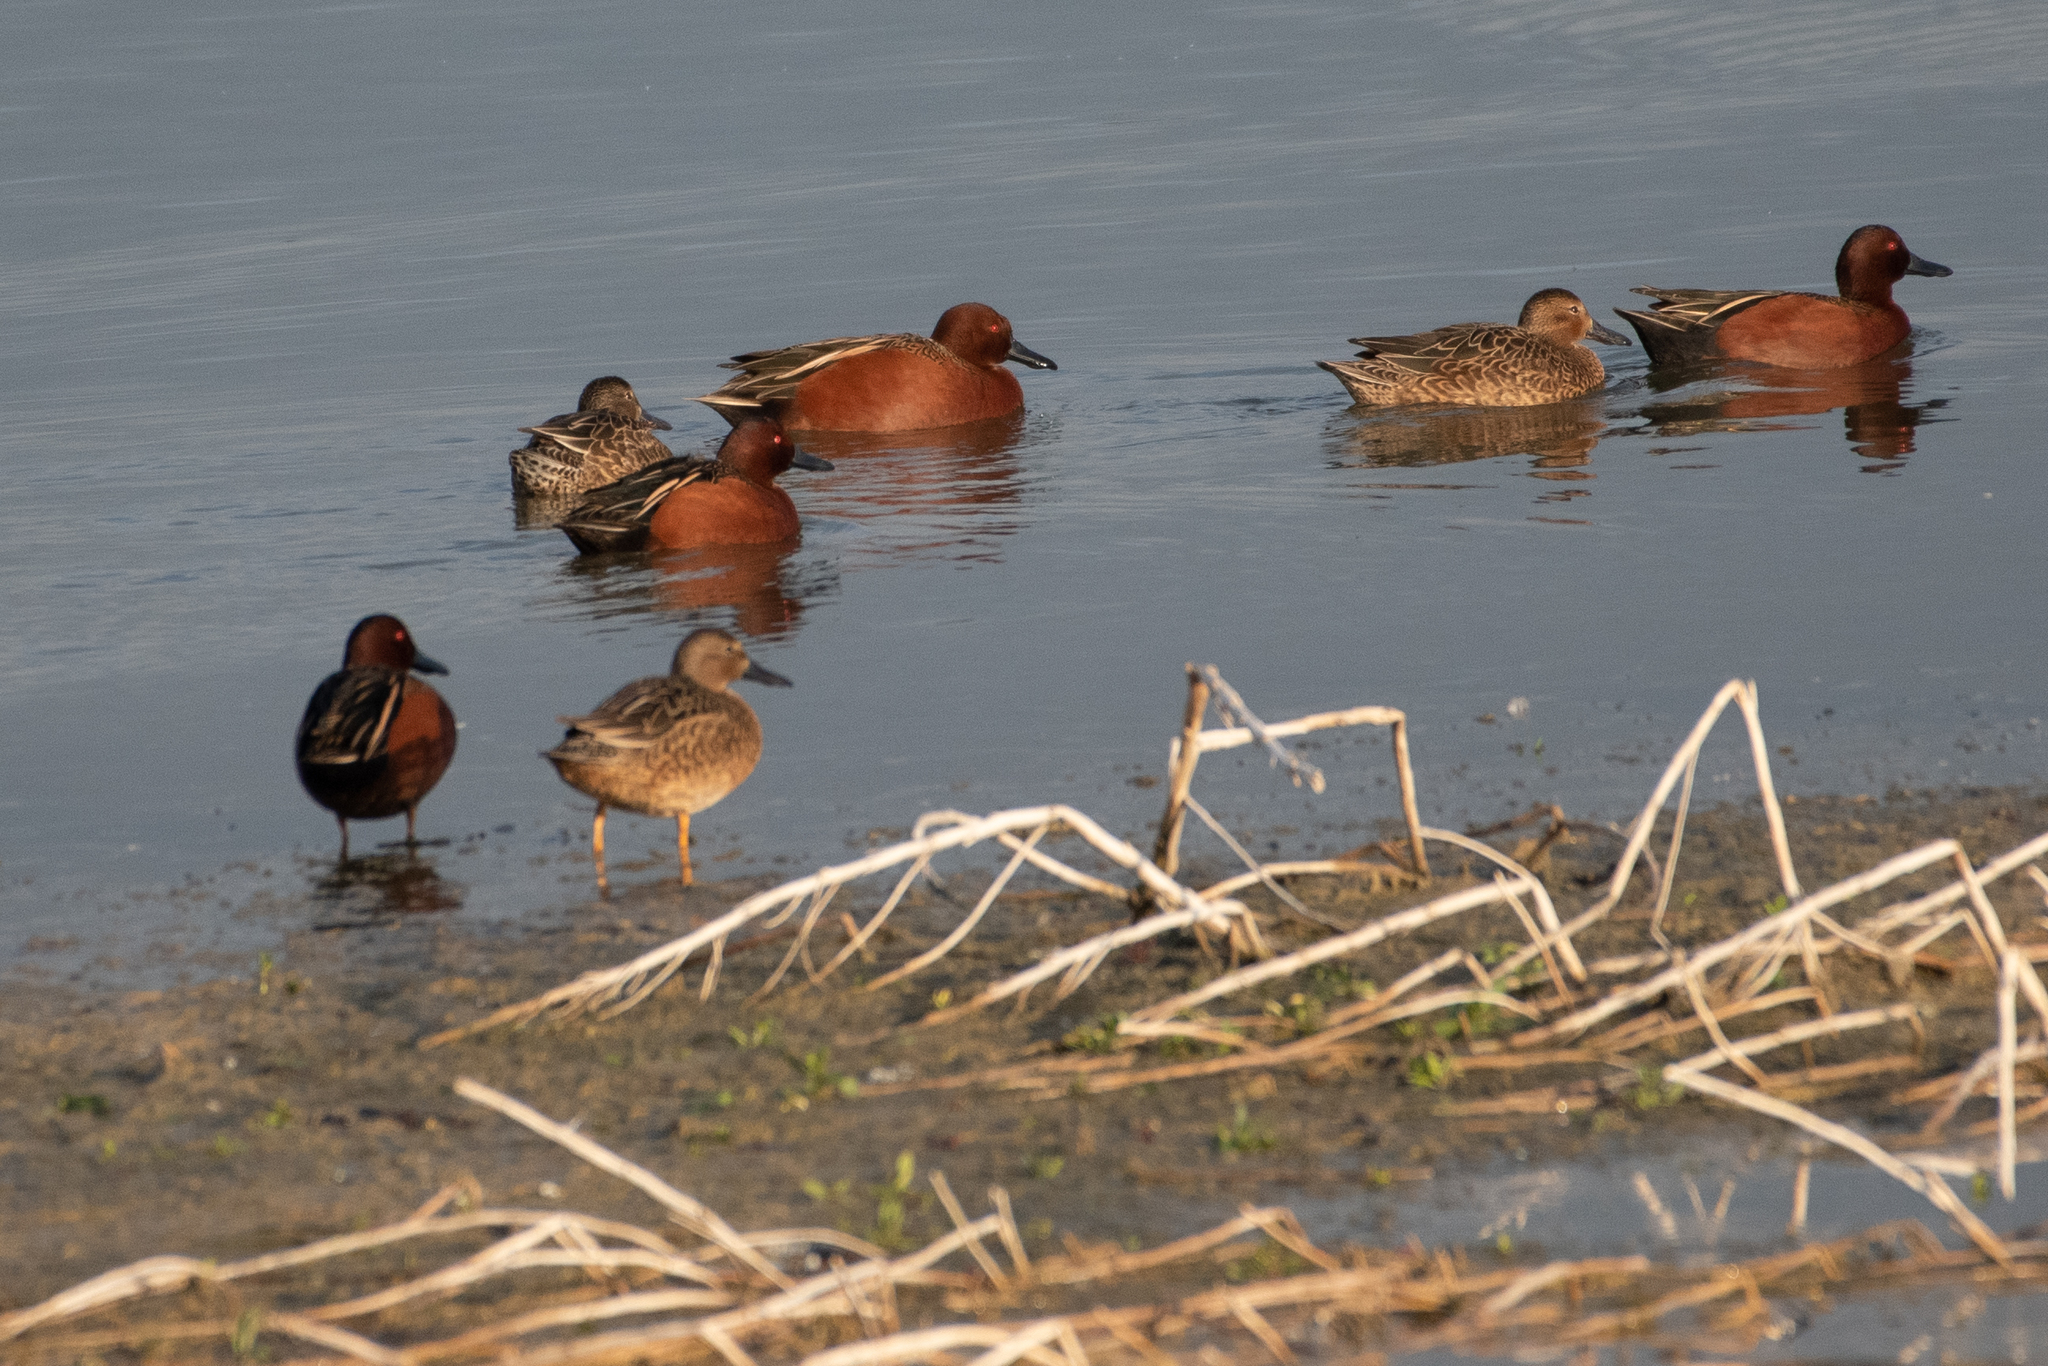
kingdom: Animalia
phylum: Chordata
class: Aves
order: Anseriformes
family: Anatidae
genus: Spatula
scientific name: Spatula cyanoptera
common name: Cinnamon teal
